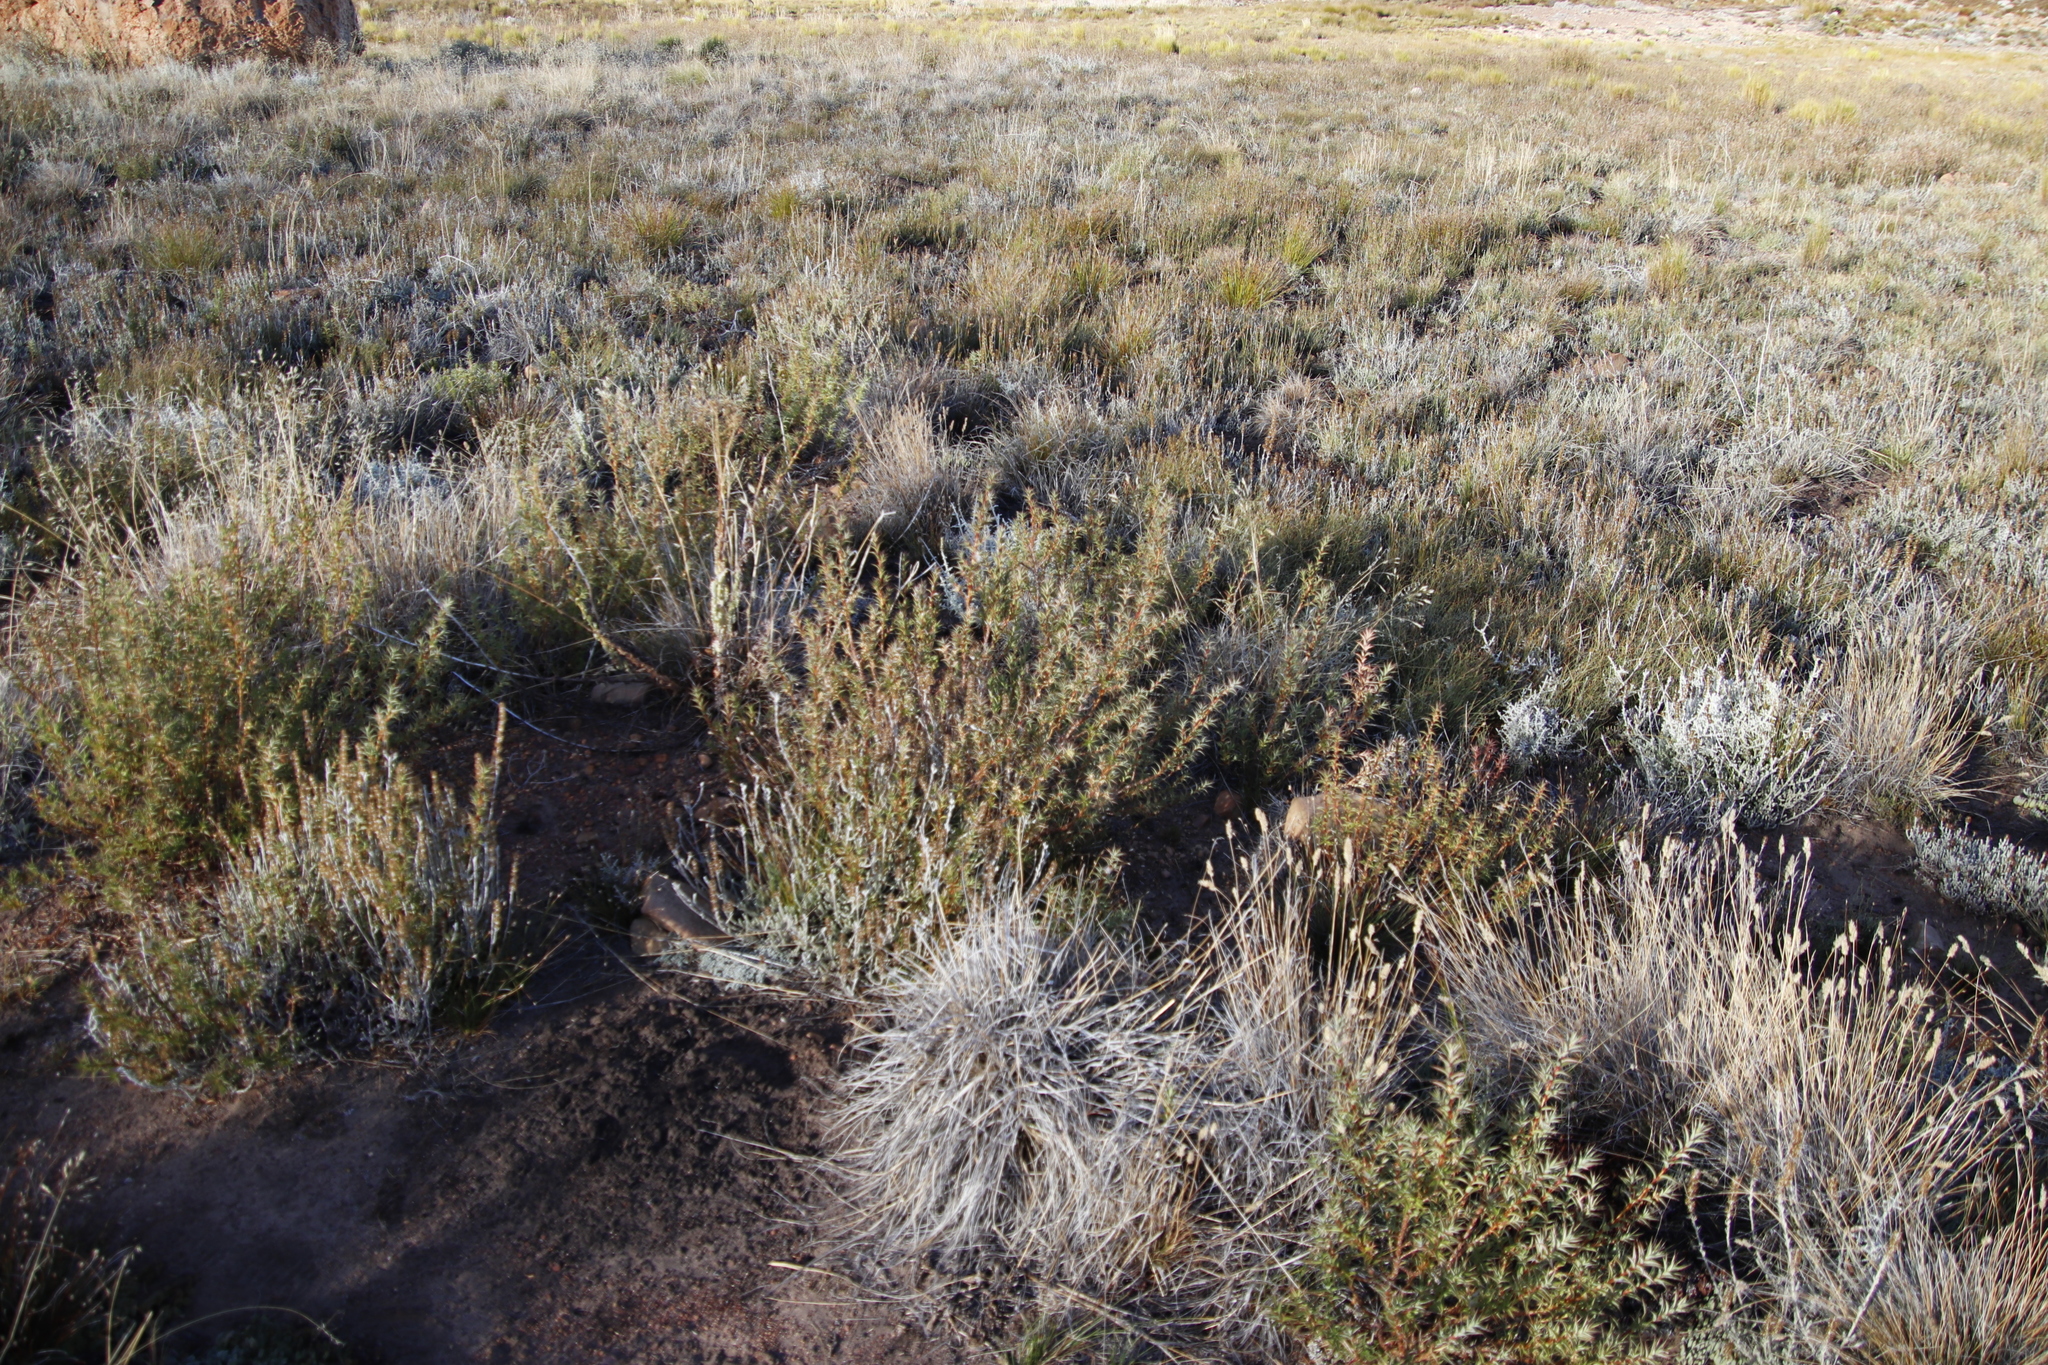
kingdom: Plantae
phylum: Tracheophyta
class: Magnoliopsida
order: Rosales
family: Rosaceae
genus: Cliffortia
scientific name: Cliffortia acanthophylla
